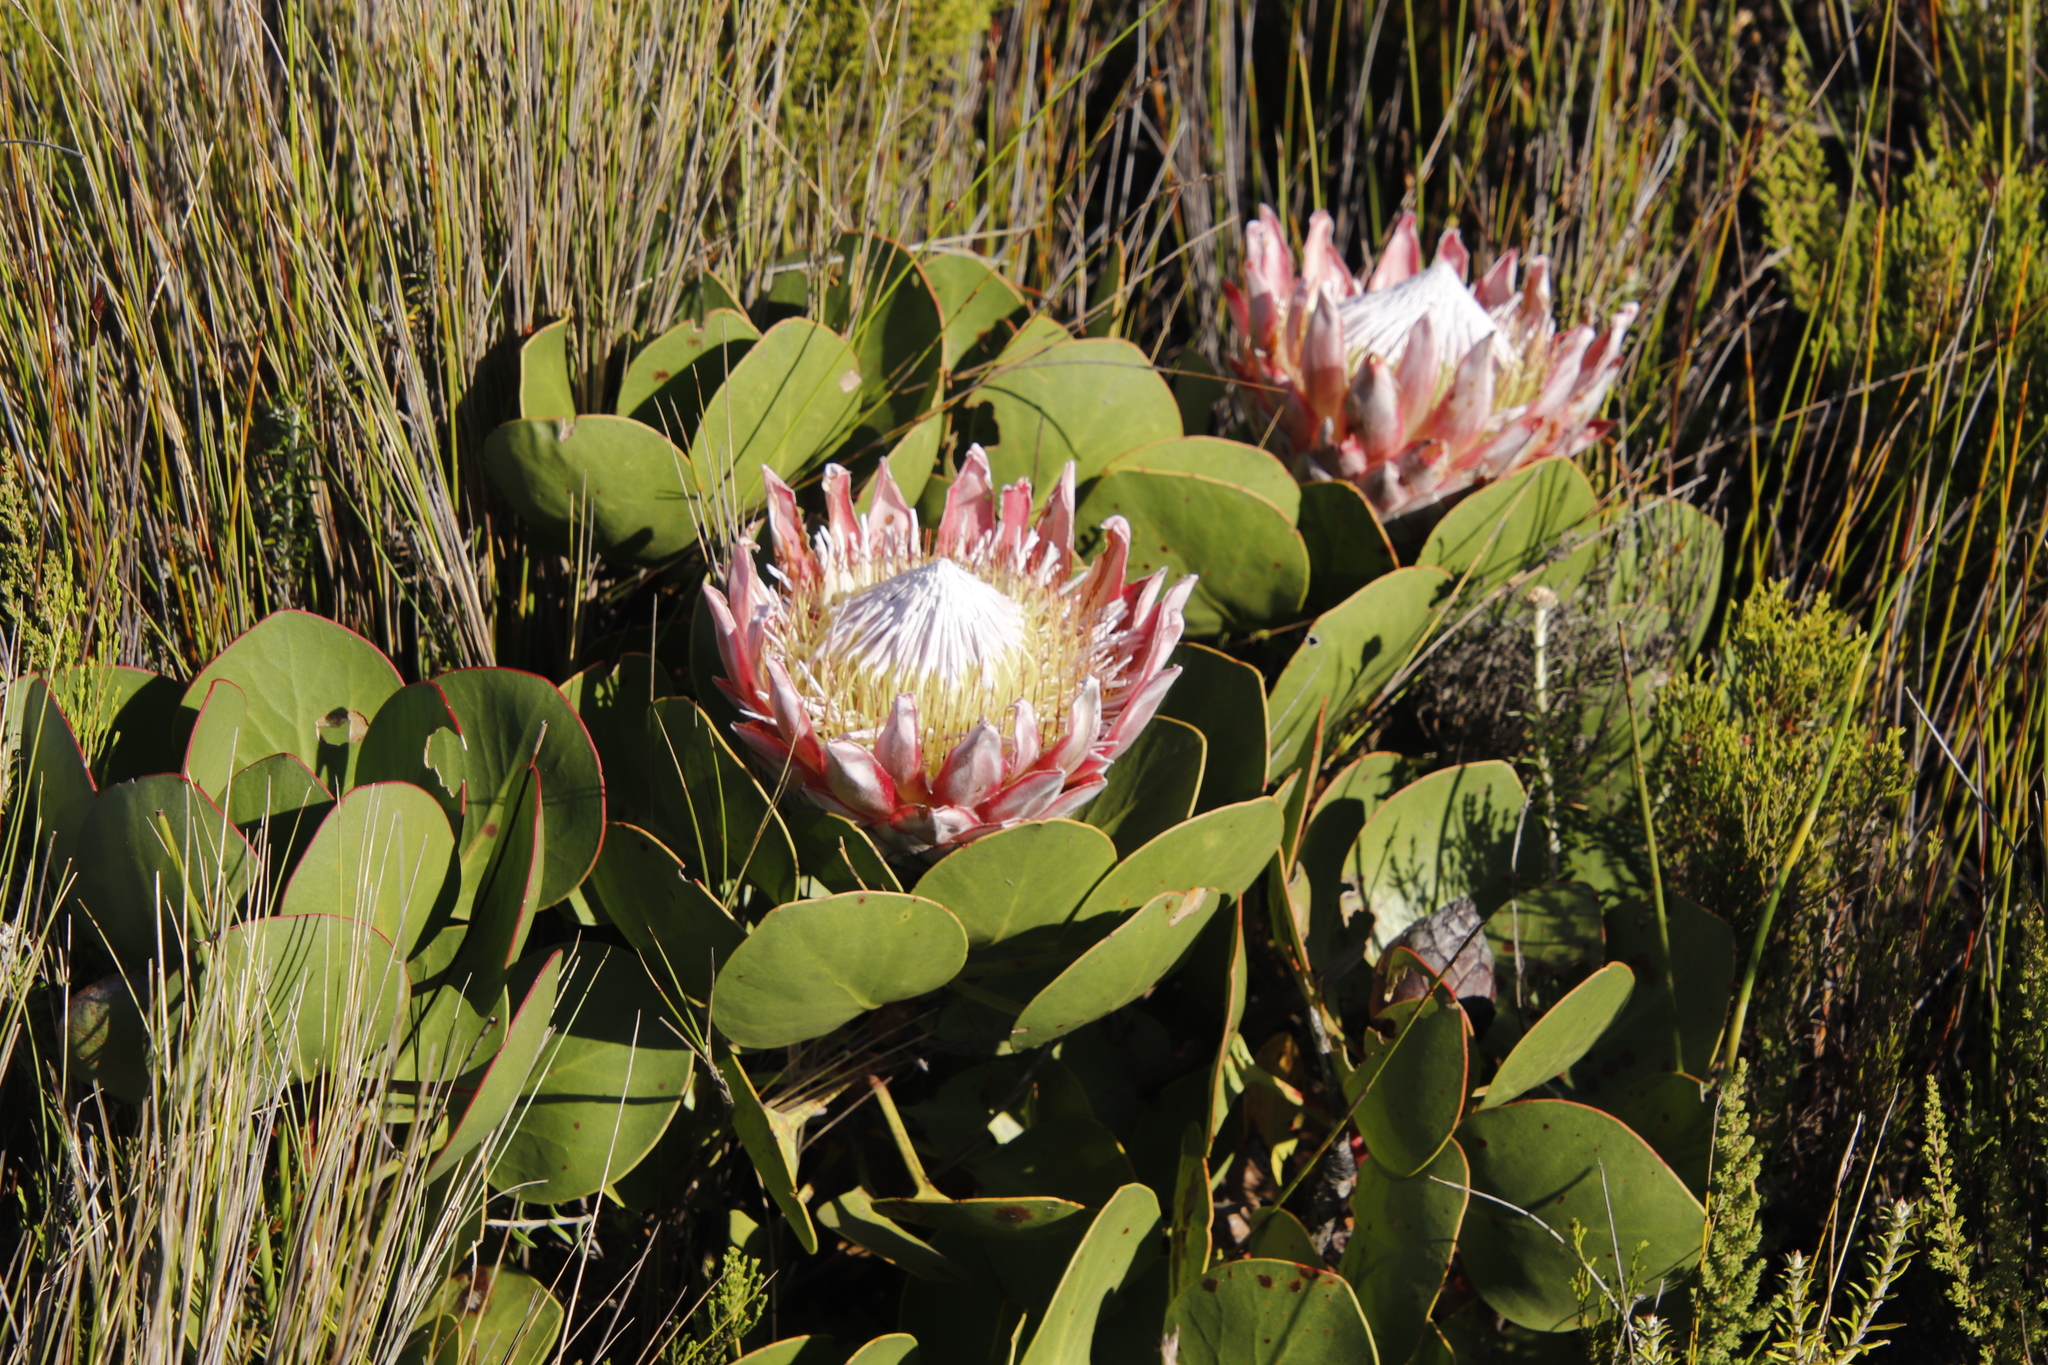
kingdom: Plantae
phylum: Tracheophyta
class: Magnoliopsida
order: Proteales
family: Proteaceae
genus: Protea
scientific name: Protea cynaroides
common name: King protea
